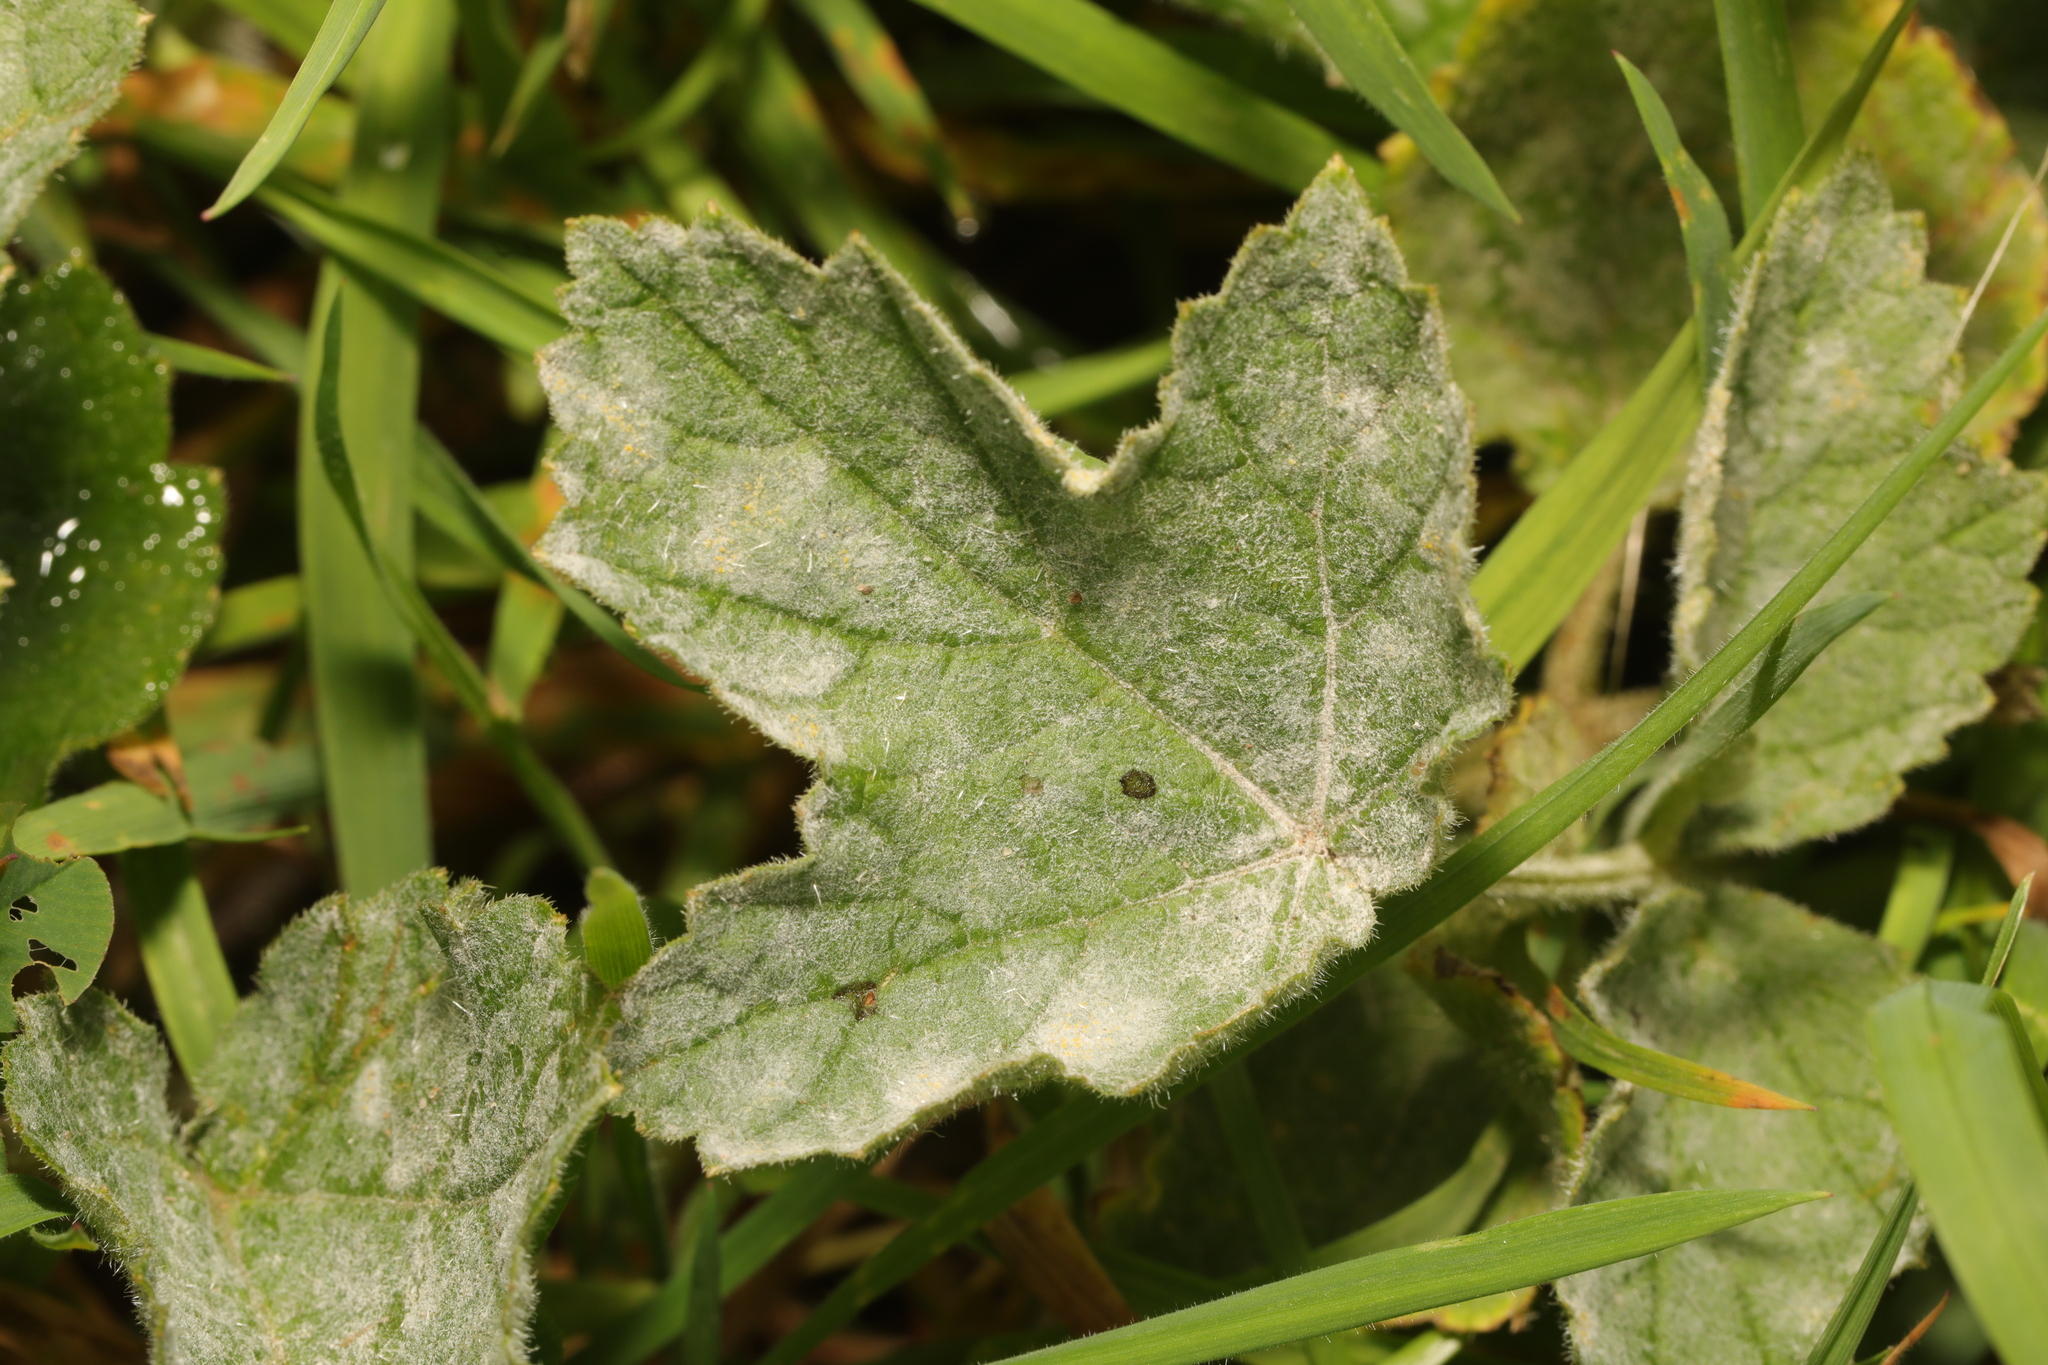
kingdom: Fungi
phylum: Ascomycota
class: Leotiomycetes
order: Helotiales
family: Erysiphaceae
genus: Erysiphe
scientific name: Erysiphe heraclei
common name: Umbellifer mildew
